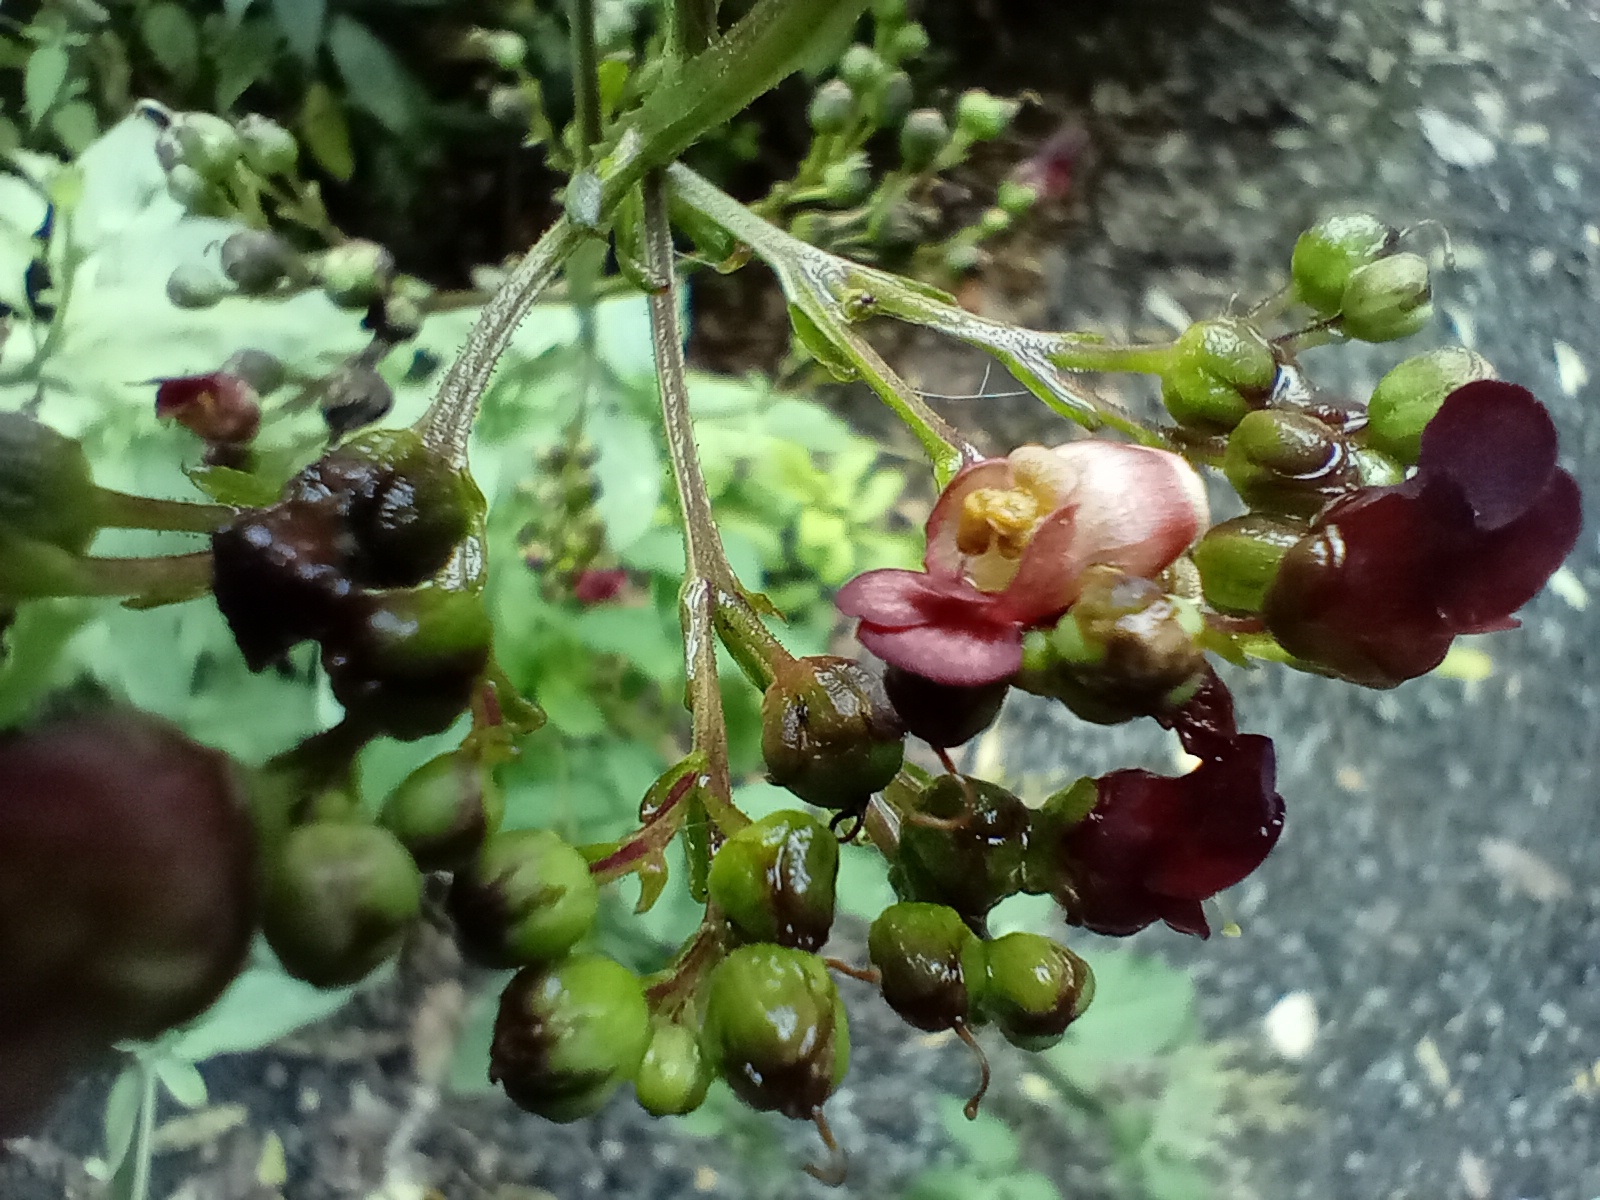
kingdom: Plantae
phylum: Tracheophyta
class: Magnoliopsida
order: Lamiales
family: Scrophulariaceae
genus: Scrophularia
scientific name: Scrophularia auriculata
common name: Water betony
